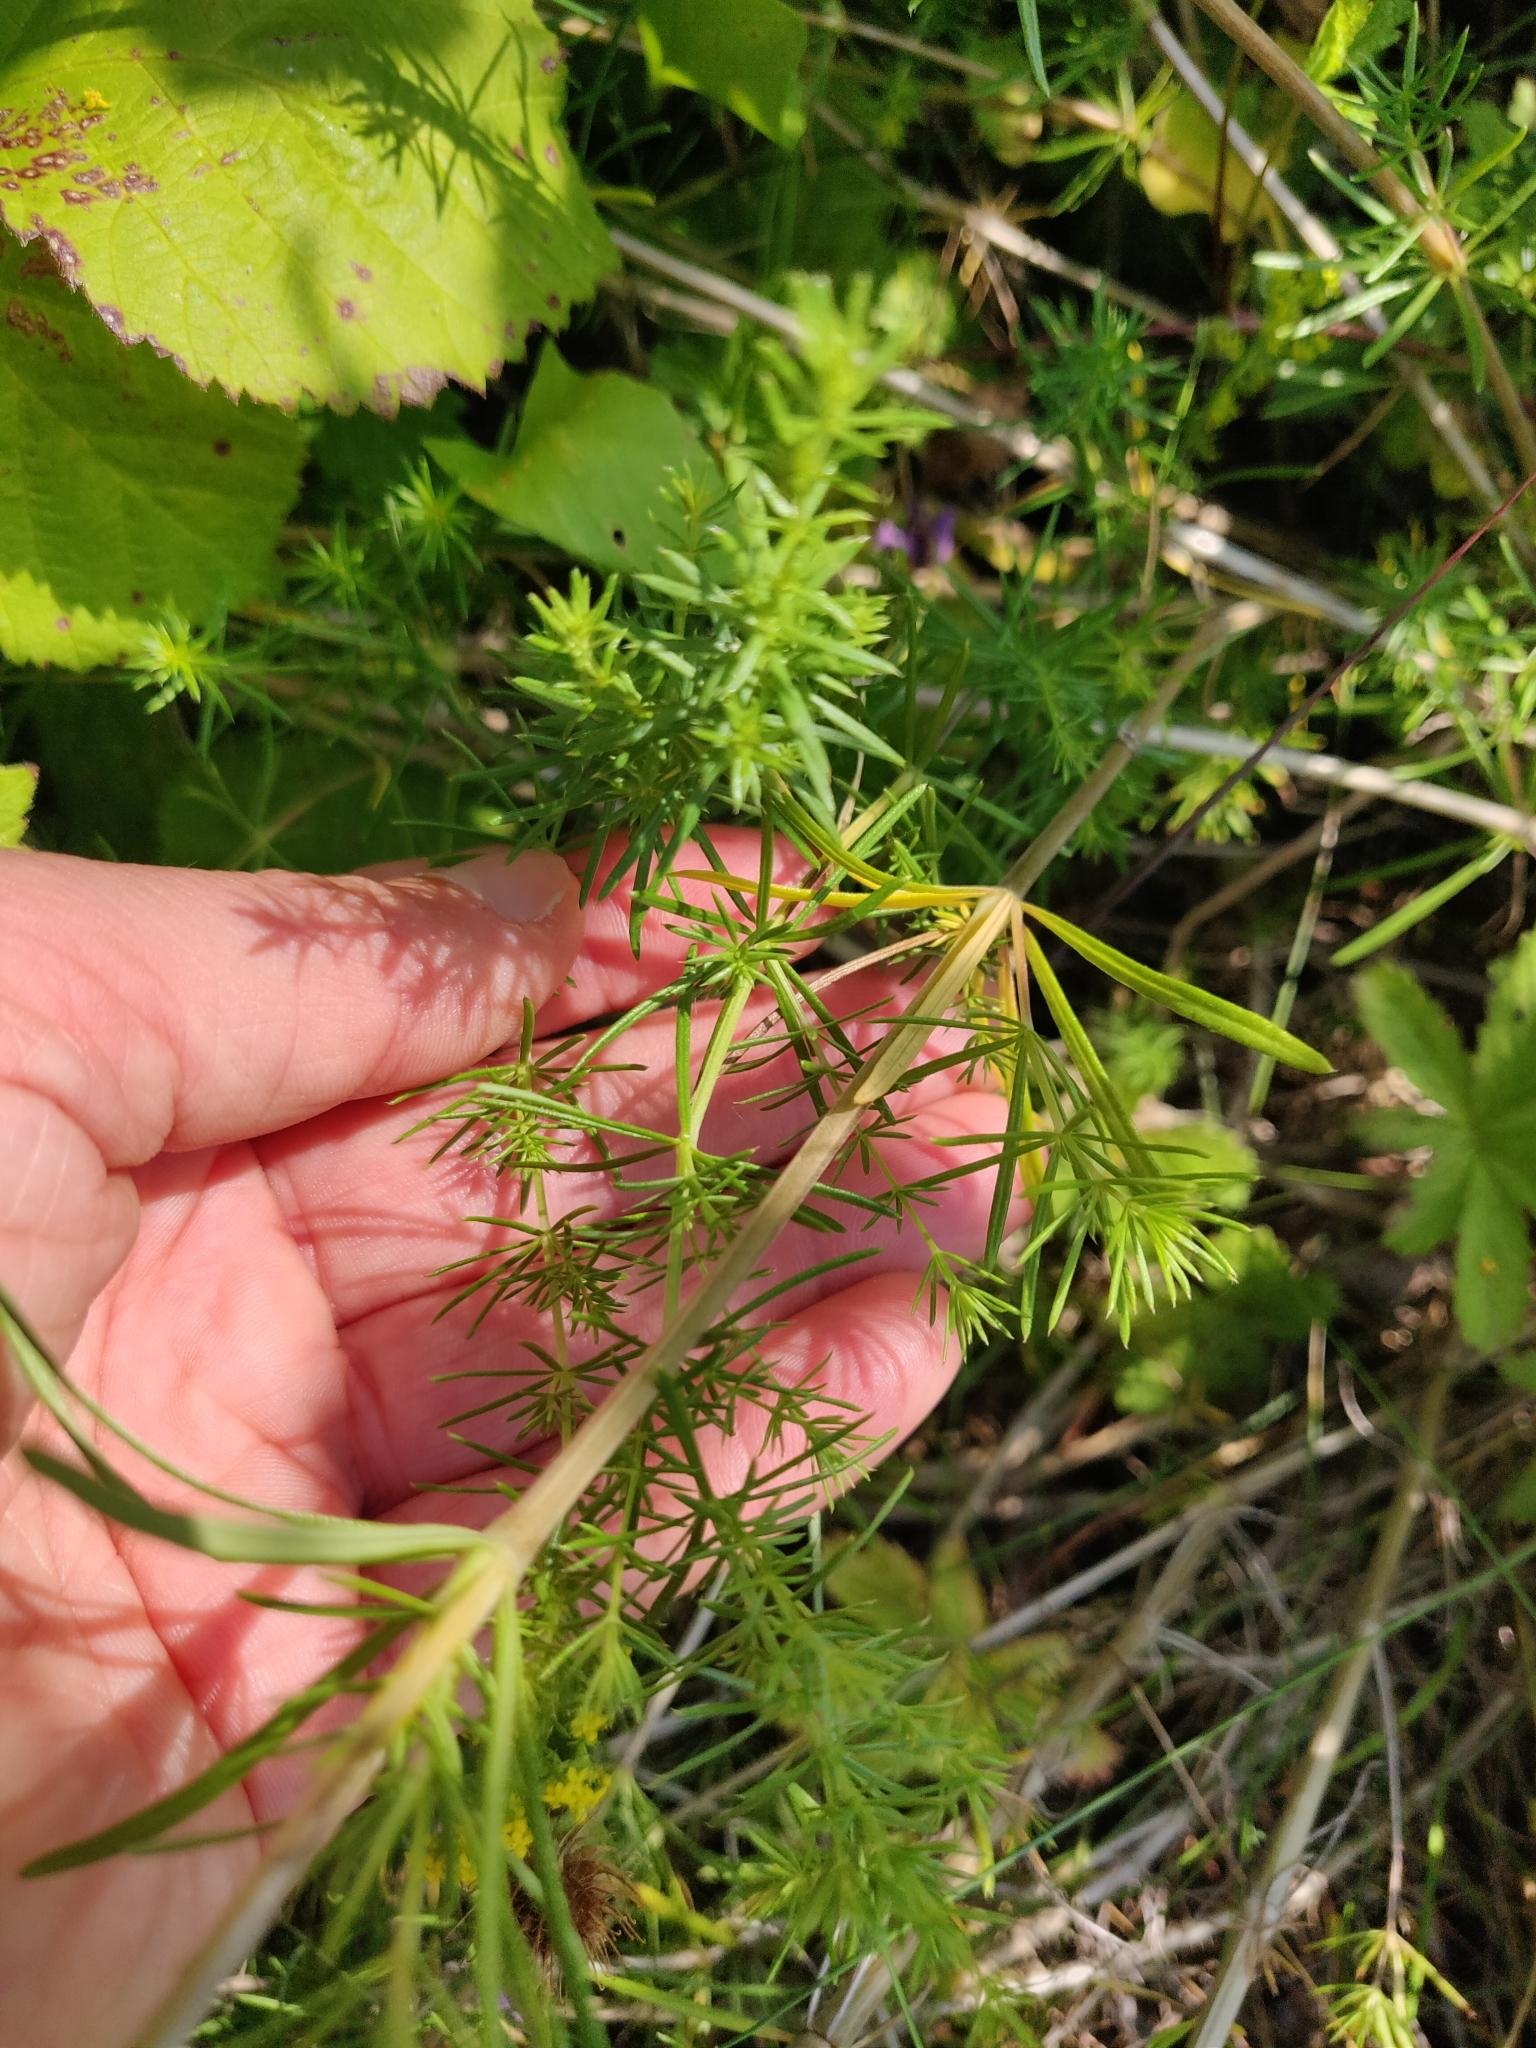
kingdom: Plantae
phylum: Tracheophyta
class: Magnoliopsida
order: Gentianales
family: Rubiaceae
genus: Galium
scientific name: Galium verum
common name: Lady's bedstraw
